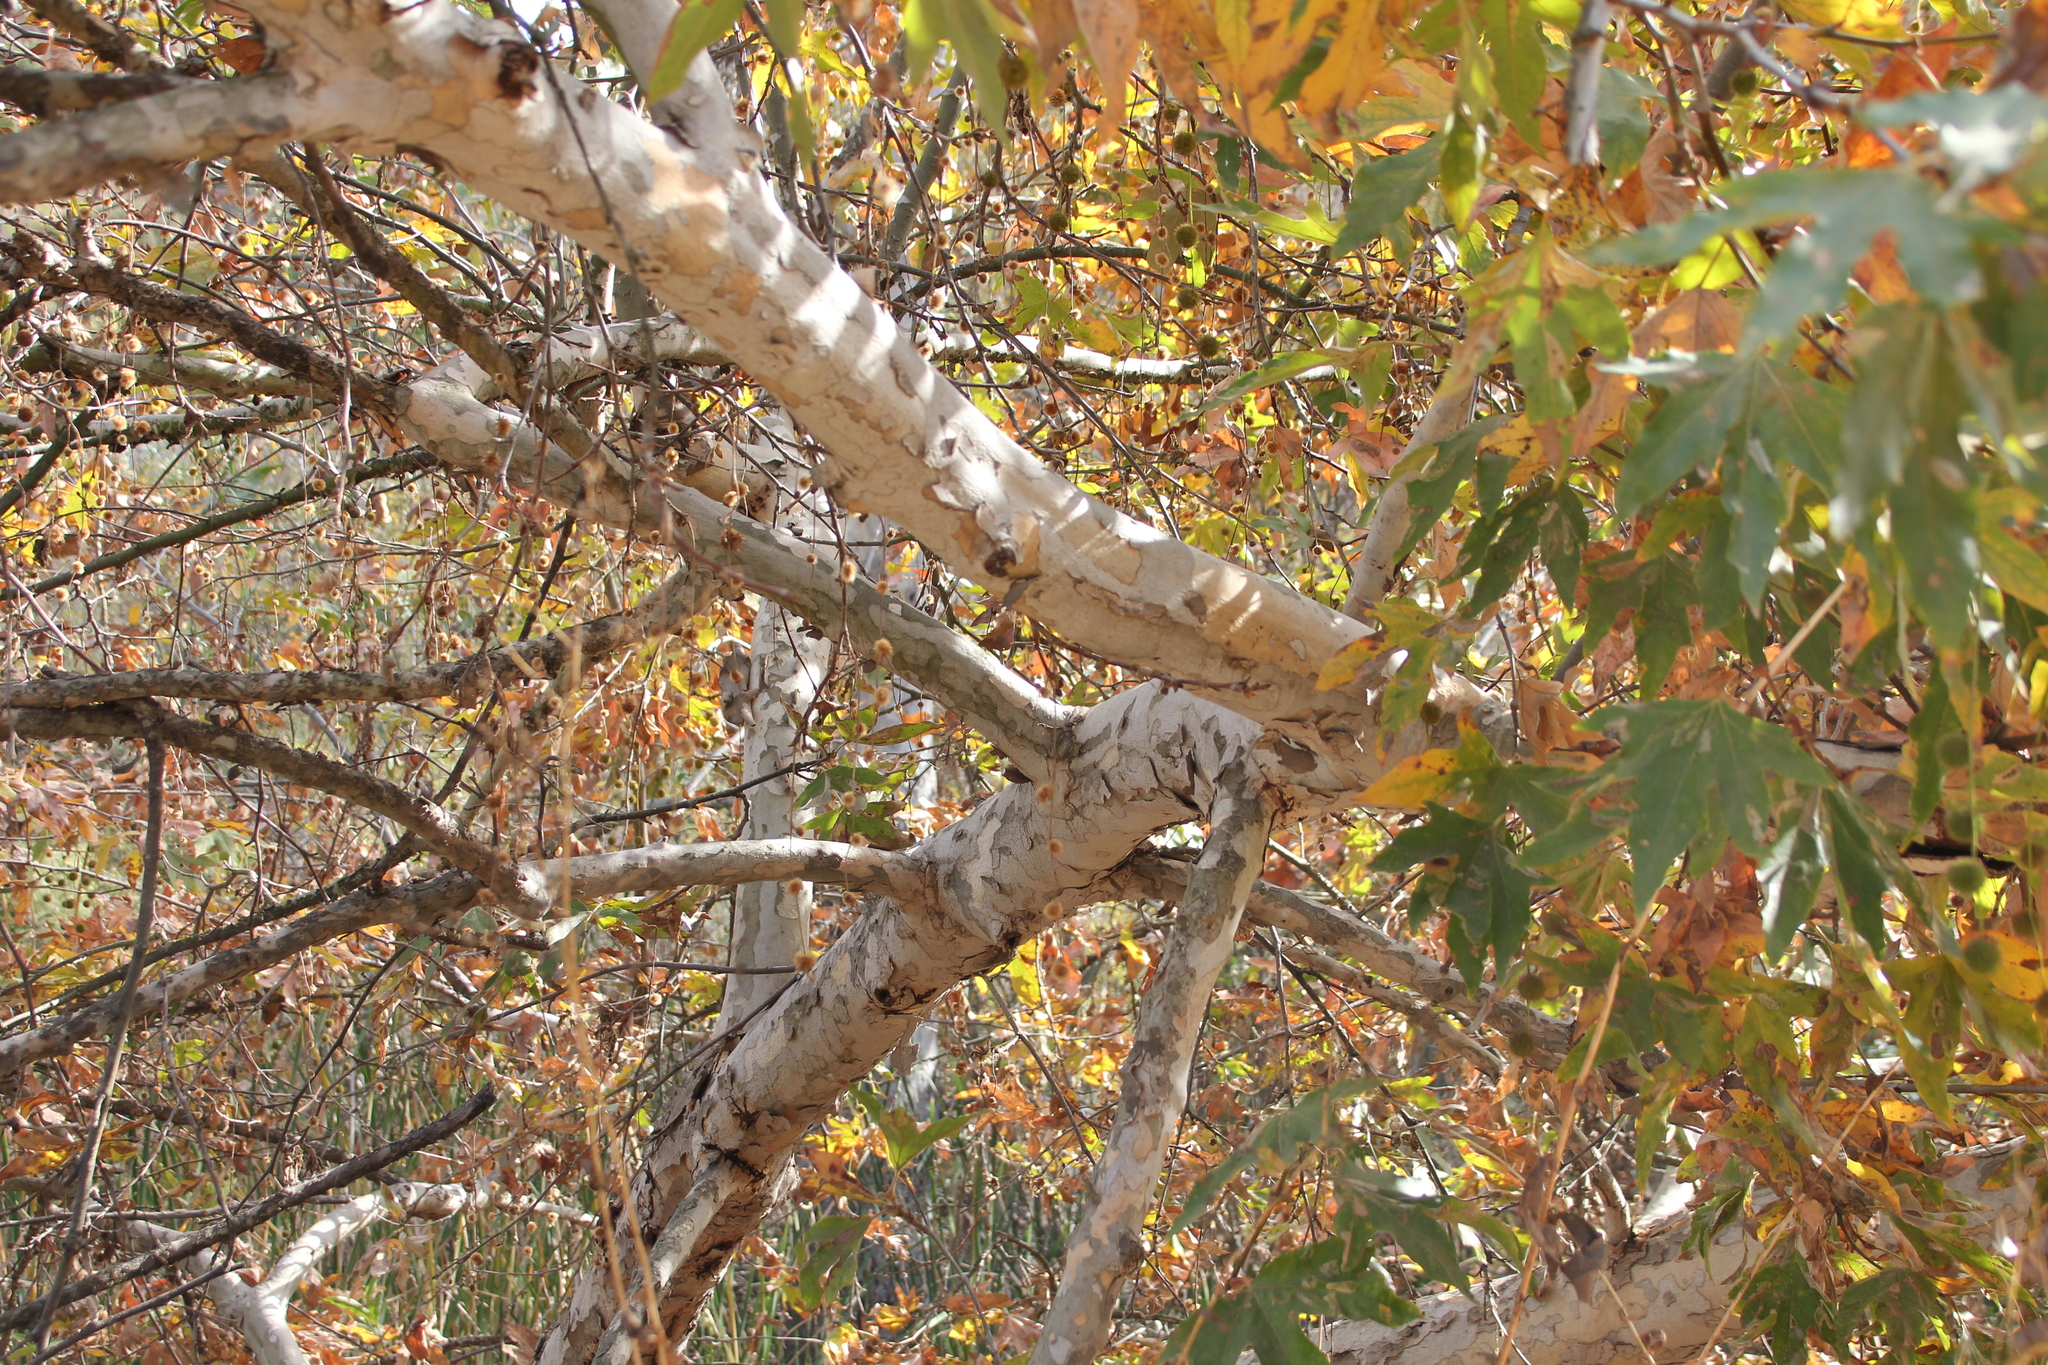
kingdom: Plantae
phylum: Tracheophyta
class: Magnoliopsida
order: Proteales
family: Platanaceae
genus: Platanus
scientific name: Platanus racemosa
